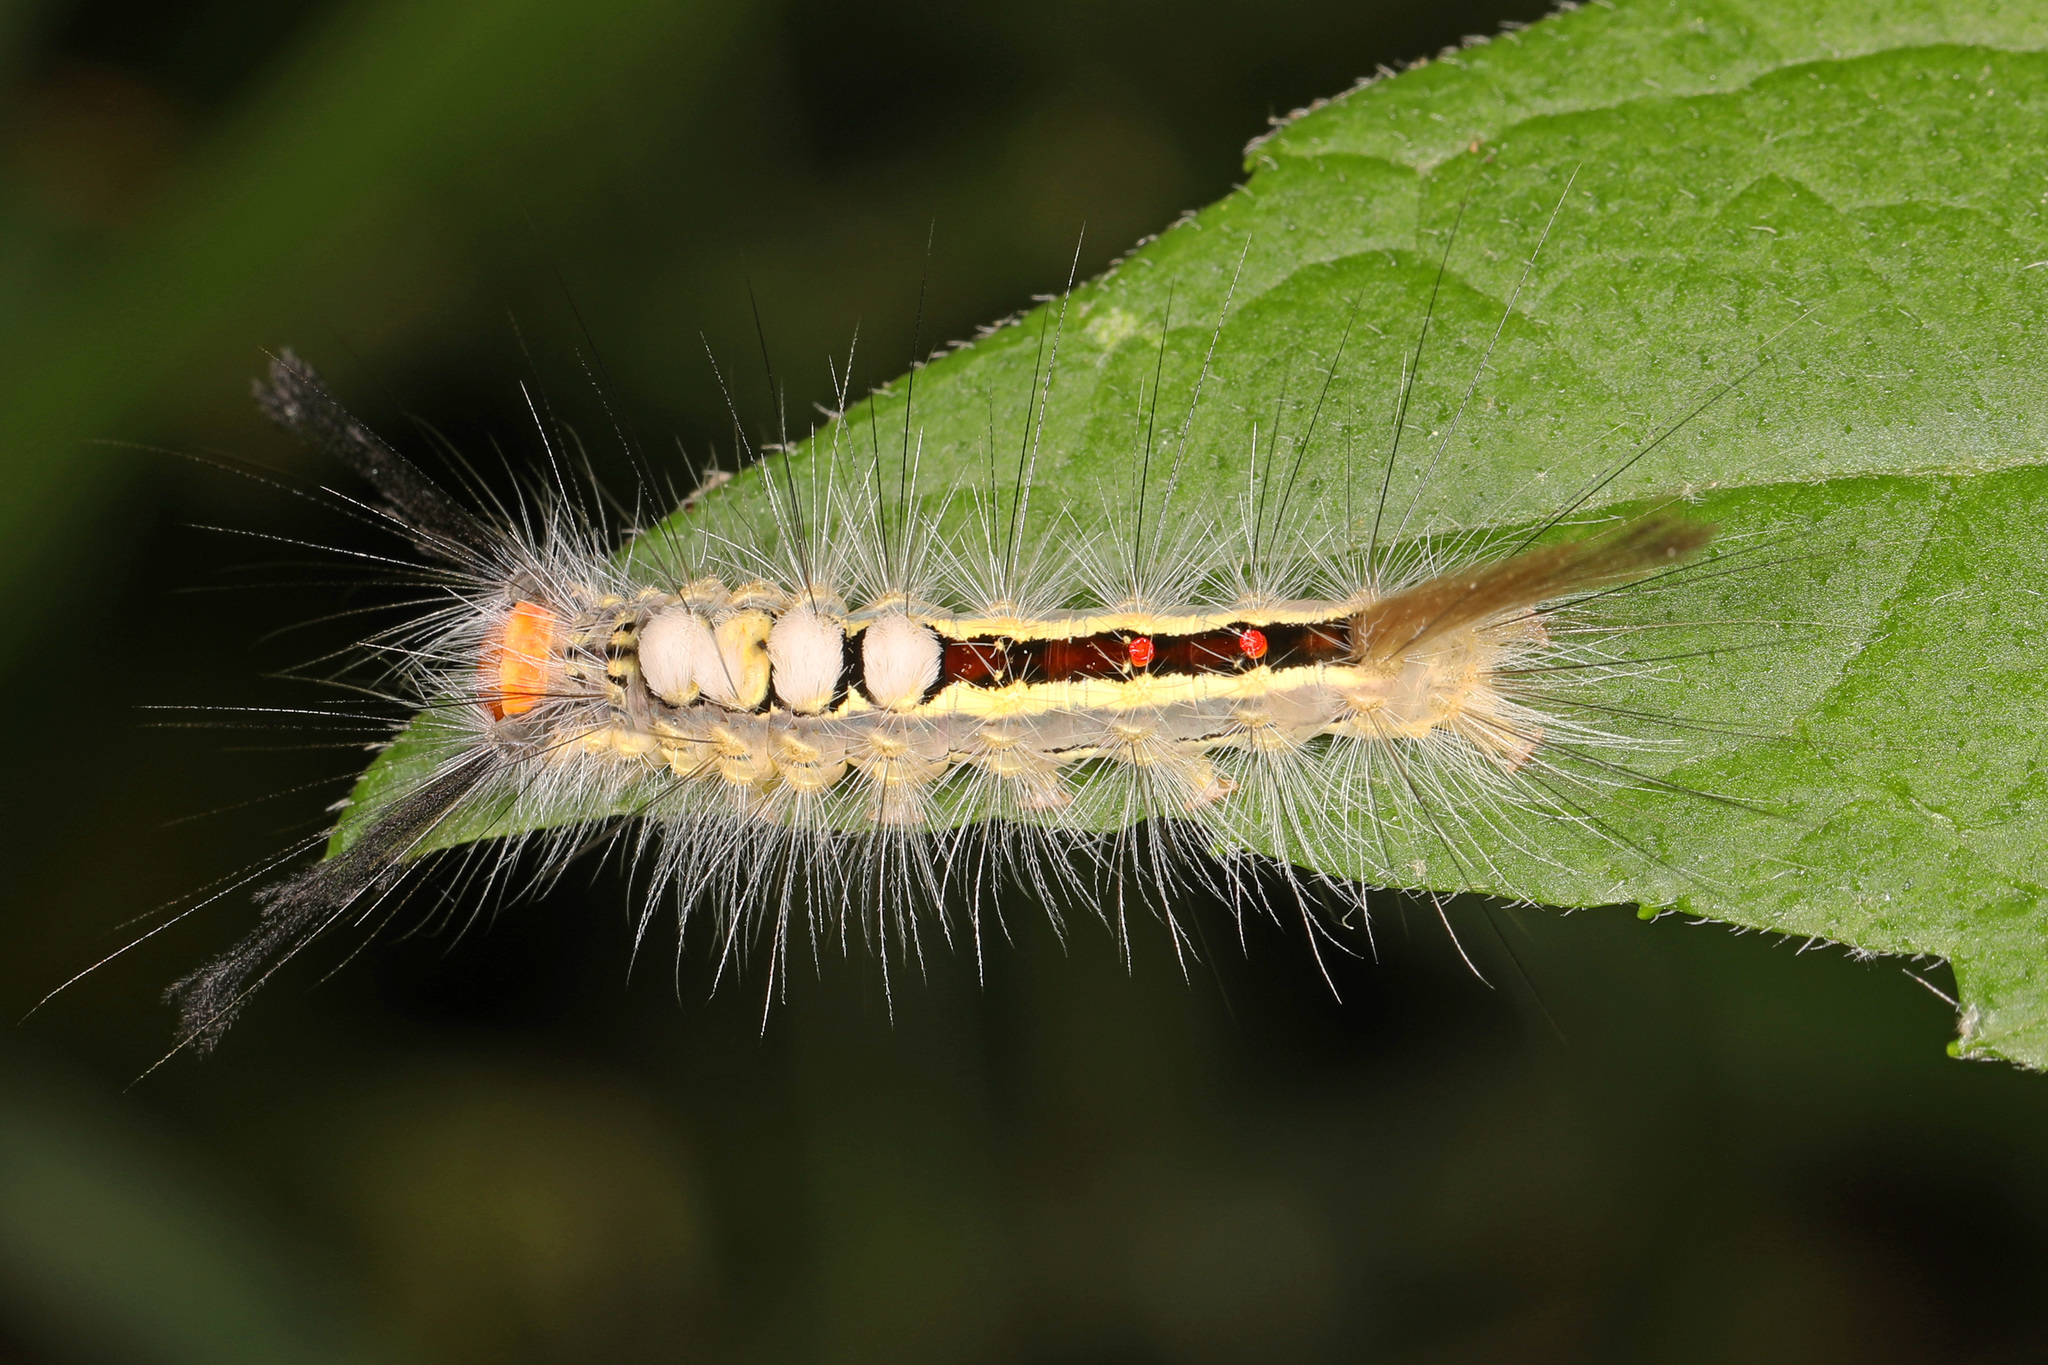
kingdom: Animalia
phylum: Arthropoda
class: Insecta
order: Lepidoptera
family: Erebidae
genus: Orgyia
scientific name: Orgyia leucostigma
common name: White-marked tussock moth
